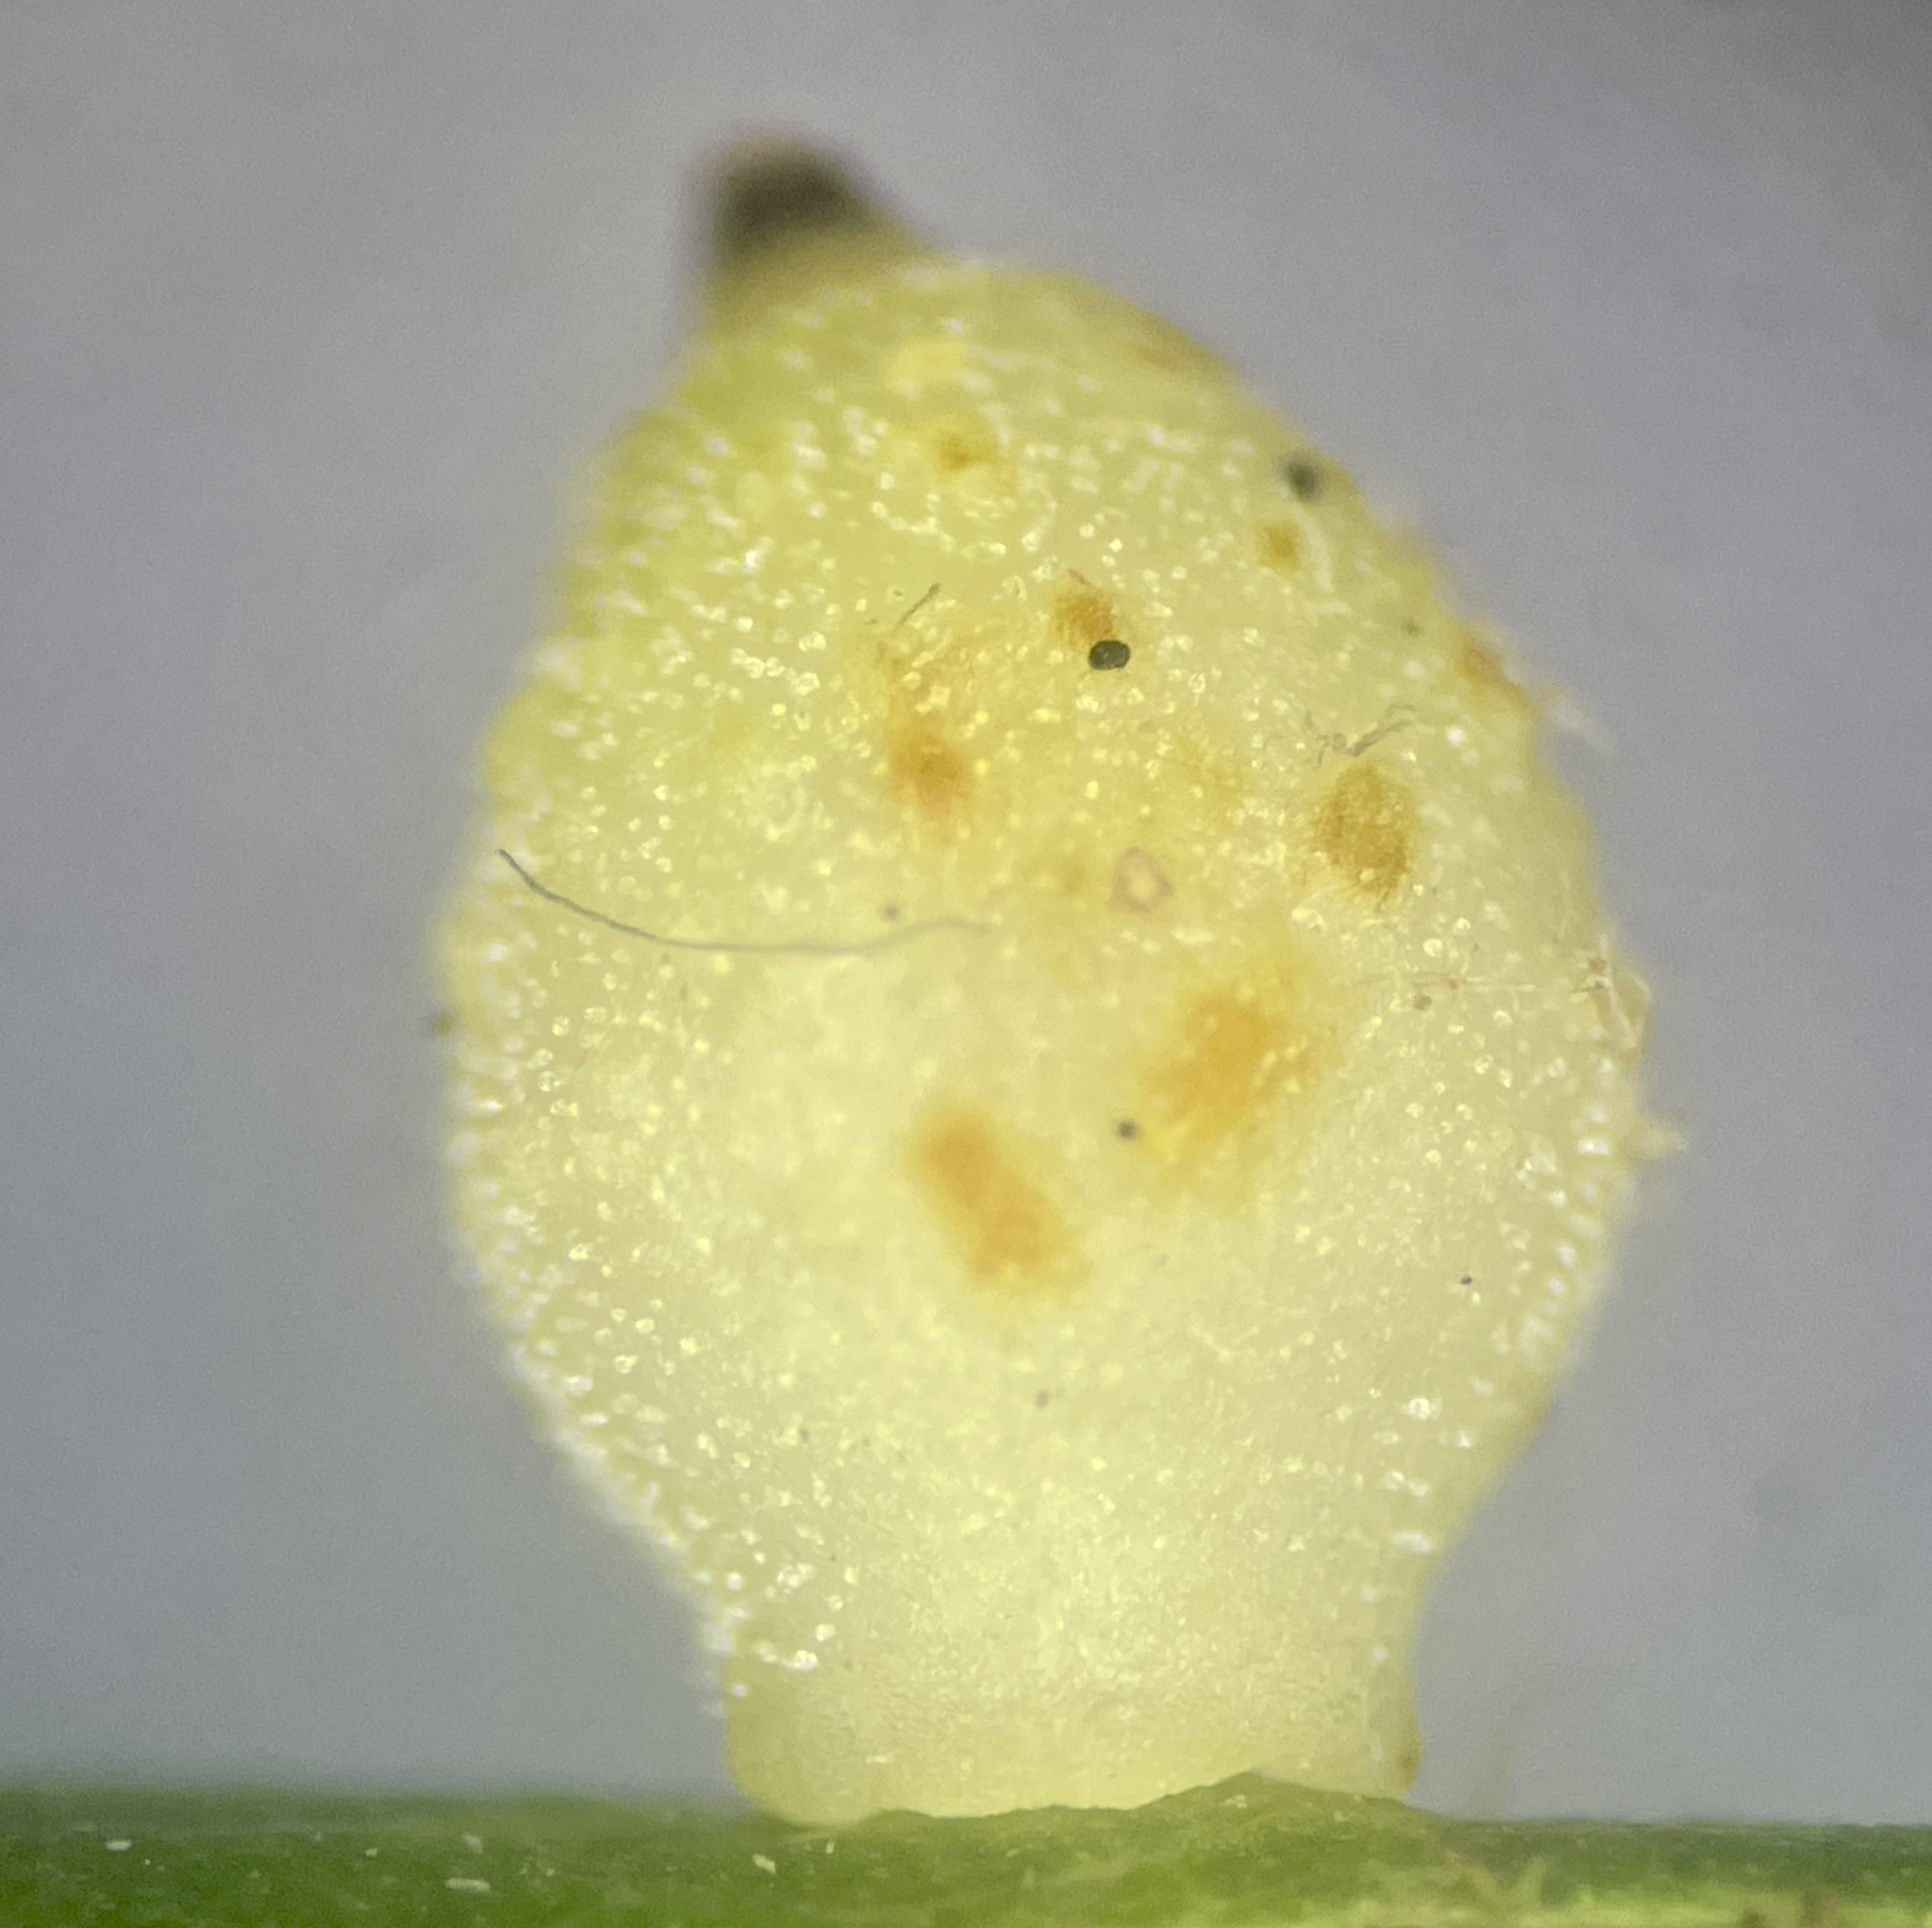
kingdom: Animalia
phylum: Arthropoda
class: Insecta
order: Diptera
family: Cecidomyiidae
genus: Caryomyia
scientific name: Caryomyia tuberidolium
